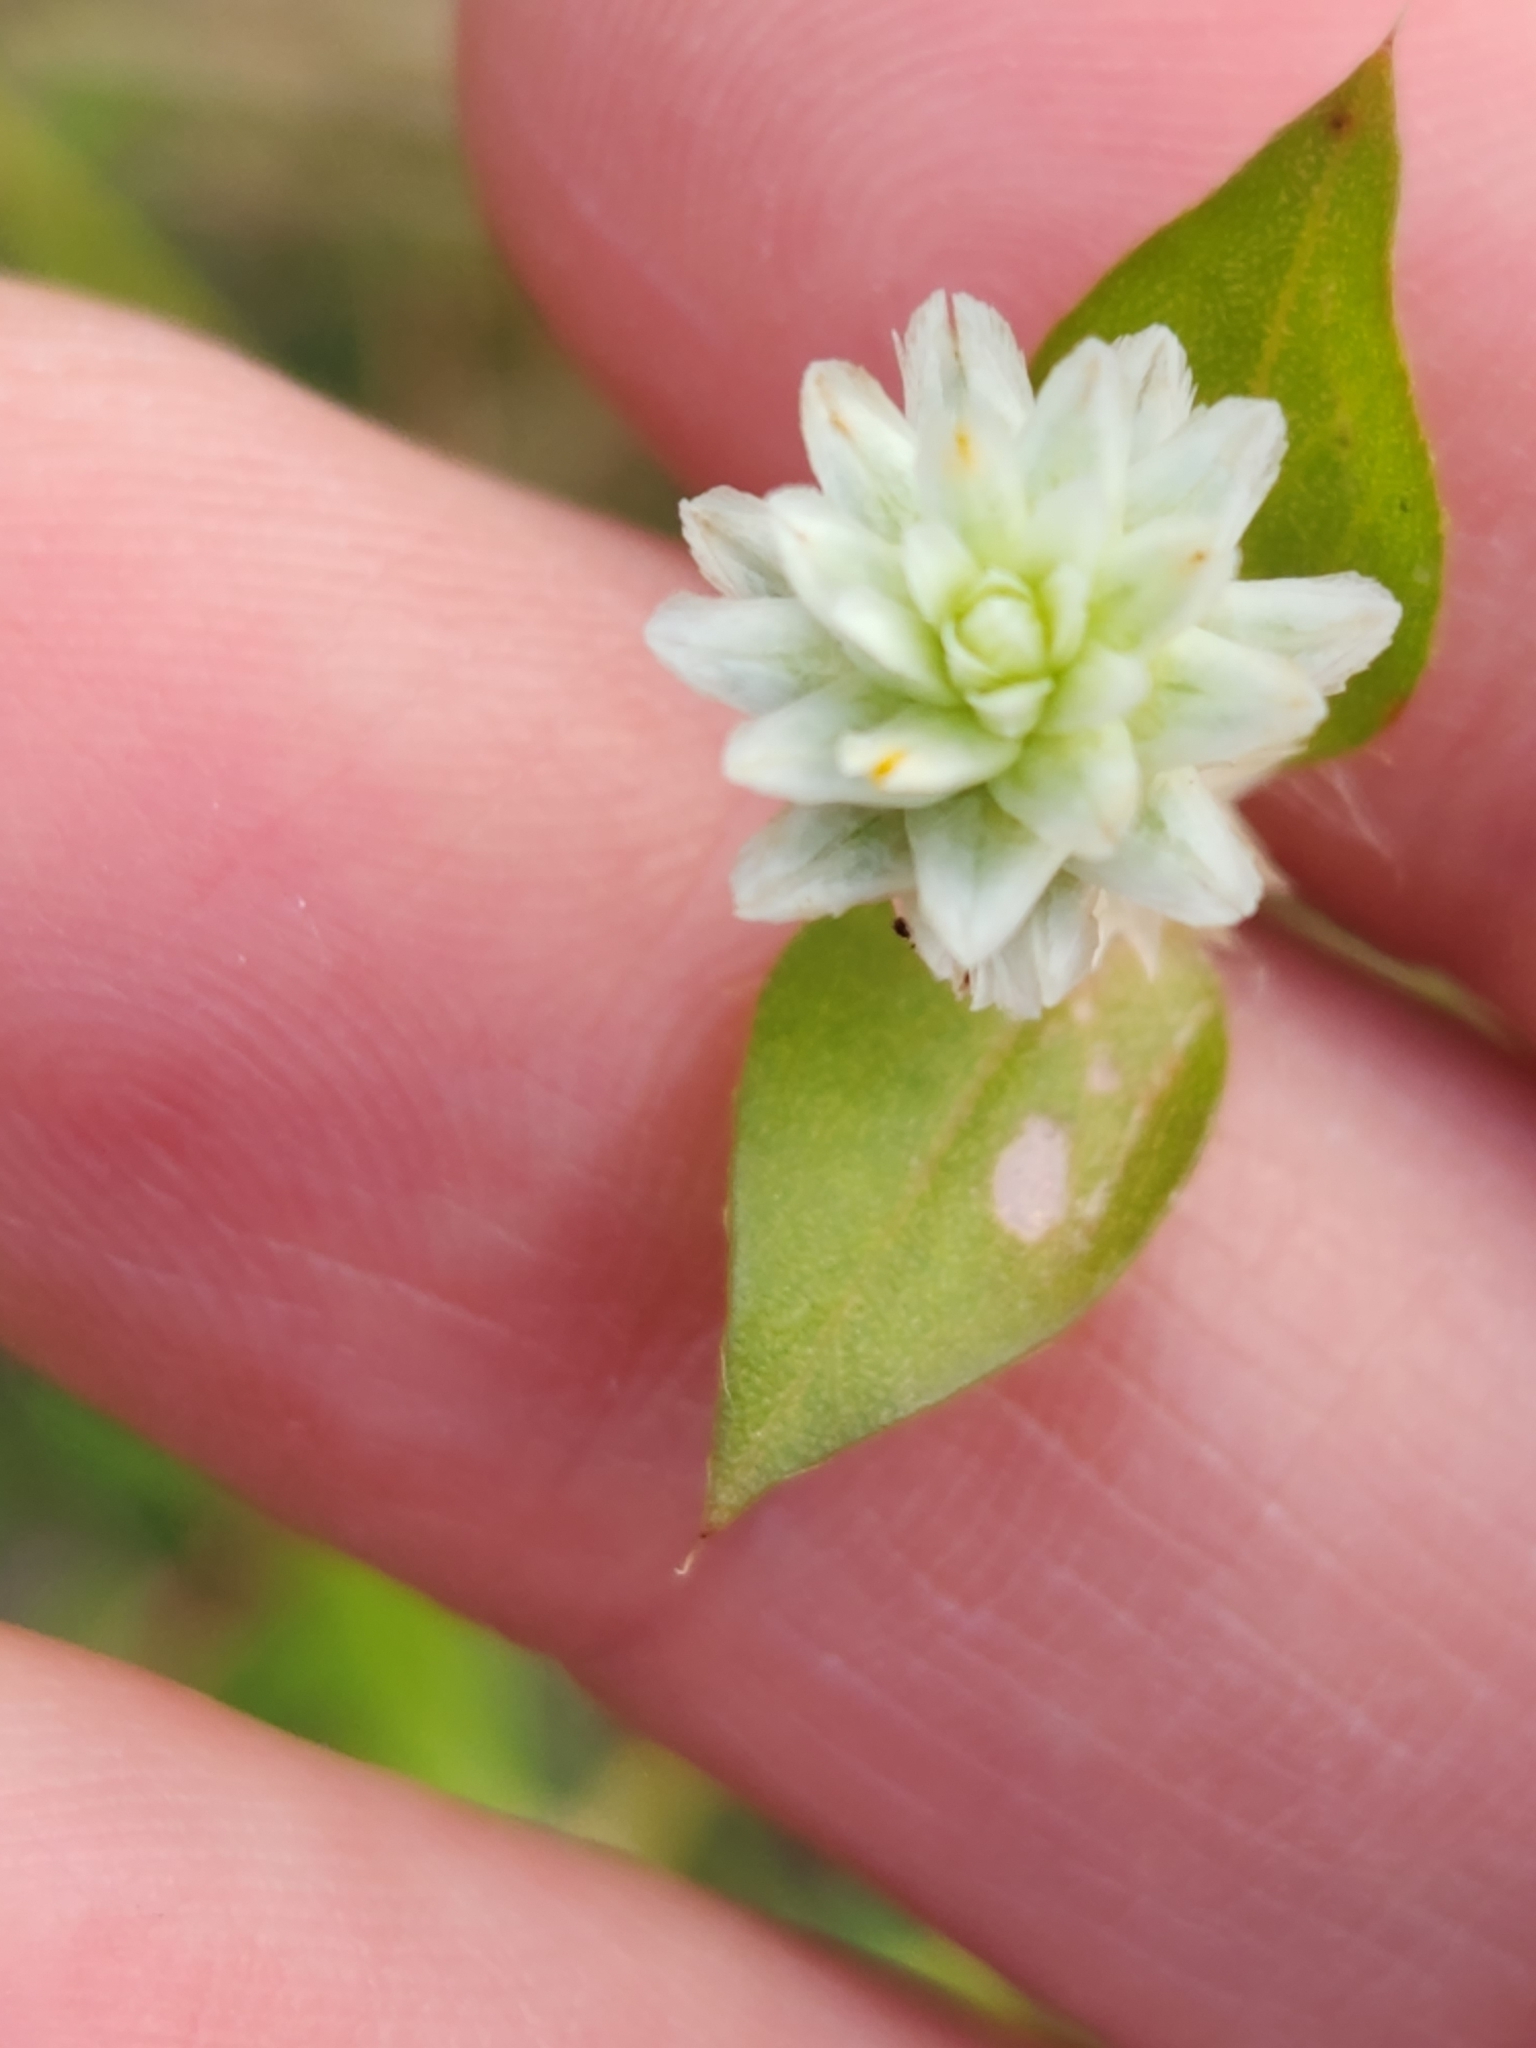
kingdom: Plantae
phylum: Tracheophyta
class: Magnoliopsida
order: Caryophyllales
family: Amaranthaceae
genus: Gomphrena
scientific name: Gomphrena serrata
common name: Arrasa con todo
